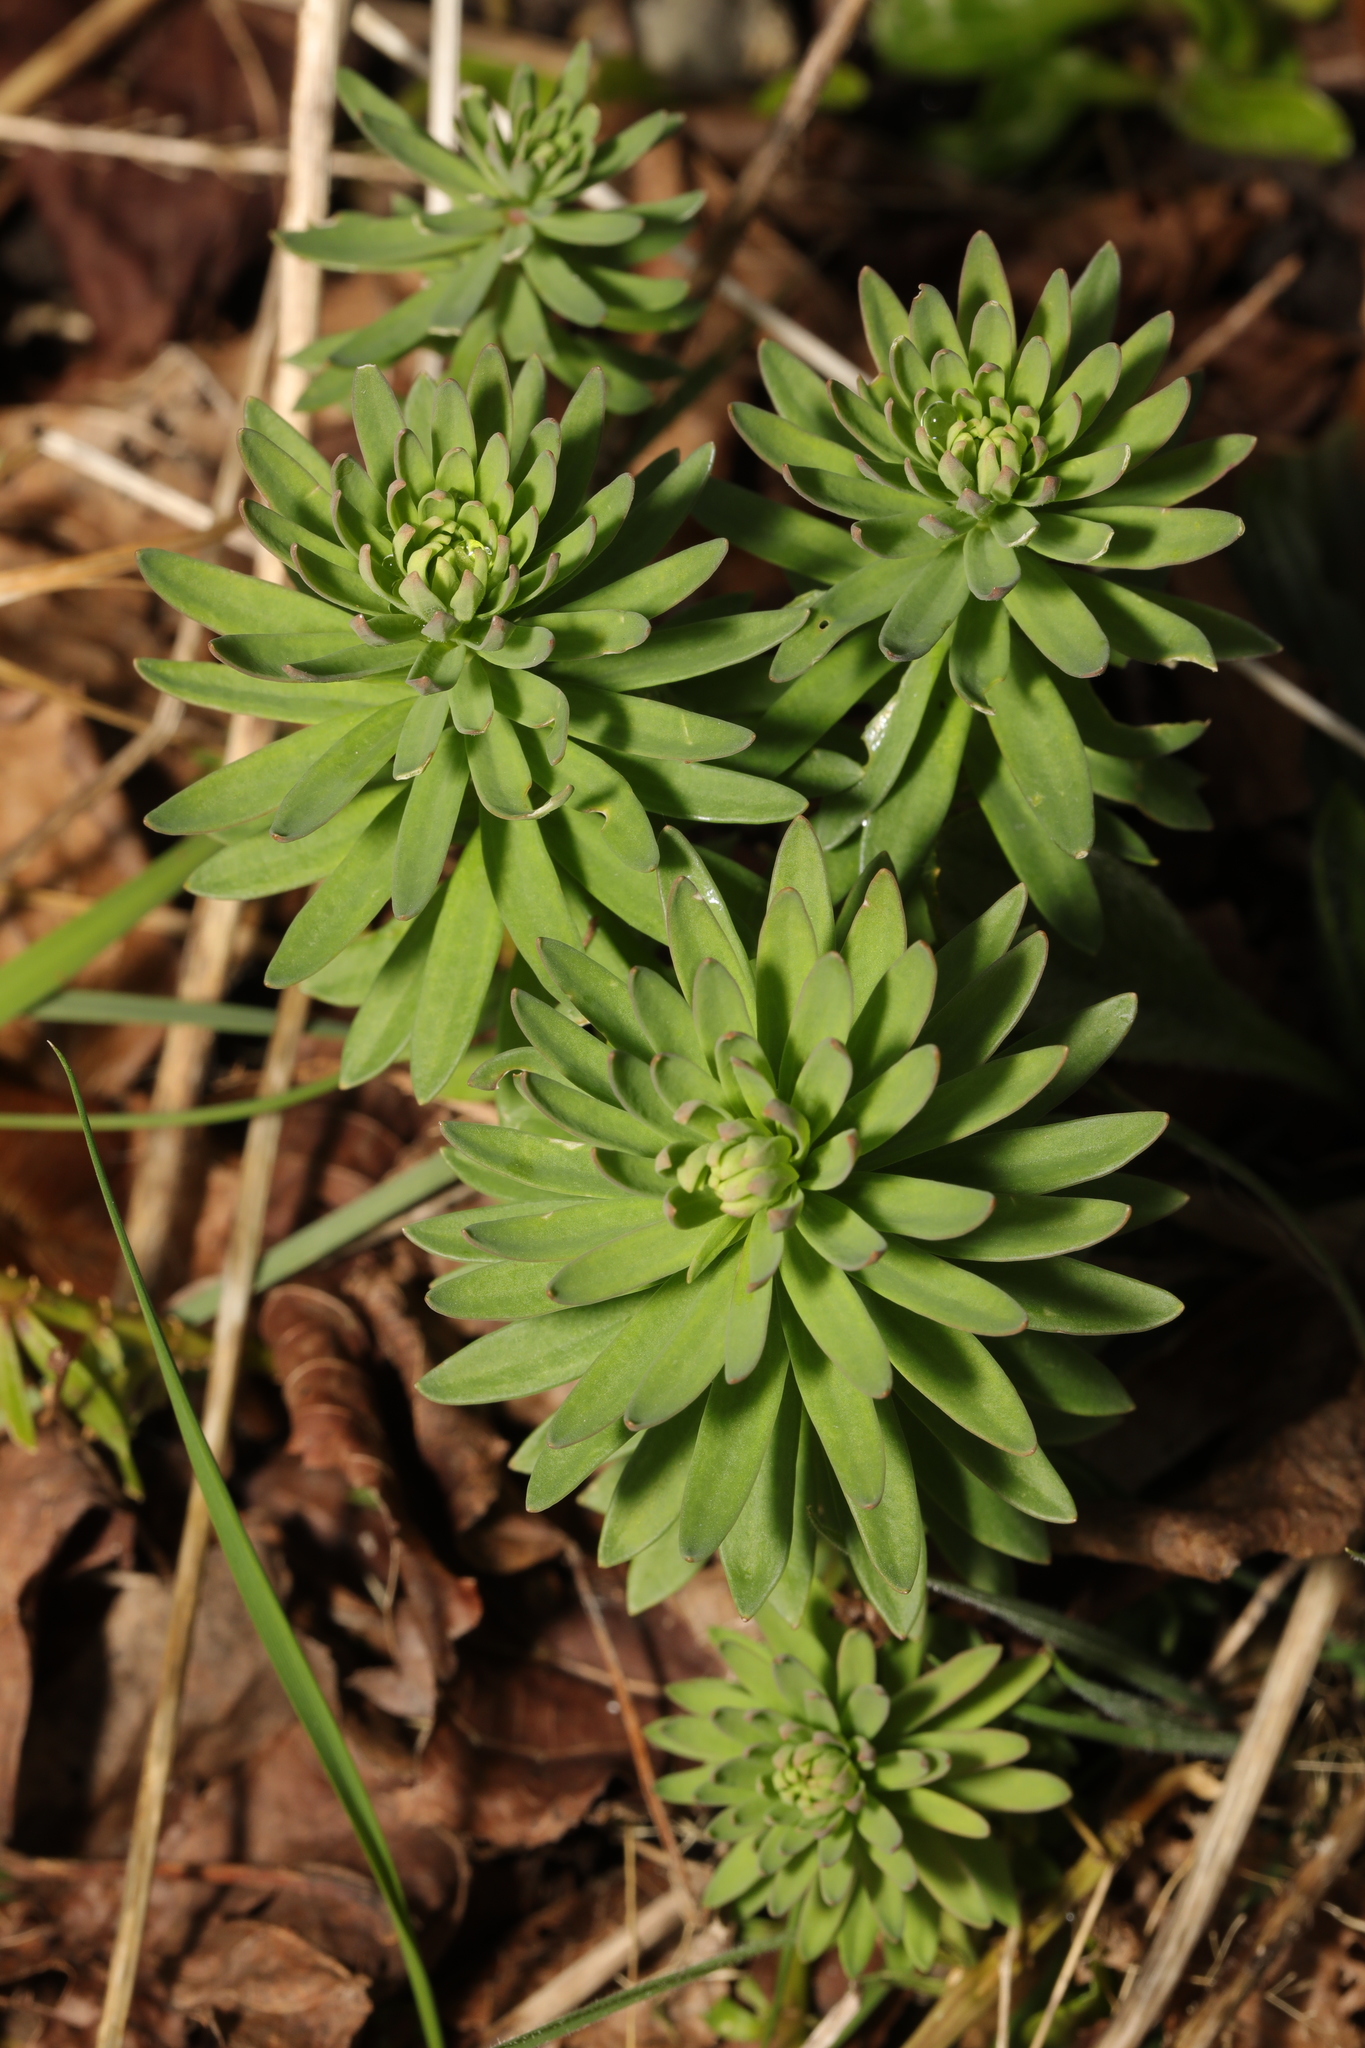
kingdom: Plantae
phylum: Tracheophyta
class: Magnoliopsida
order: Lamiales
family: Plantaginaceae
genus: Linaria
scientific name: Linaria purpurea
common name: Purple toadflax
